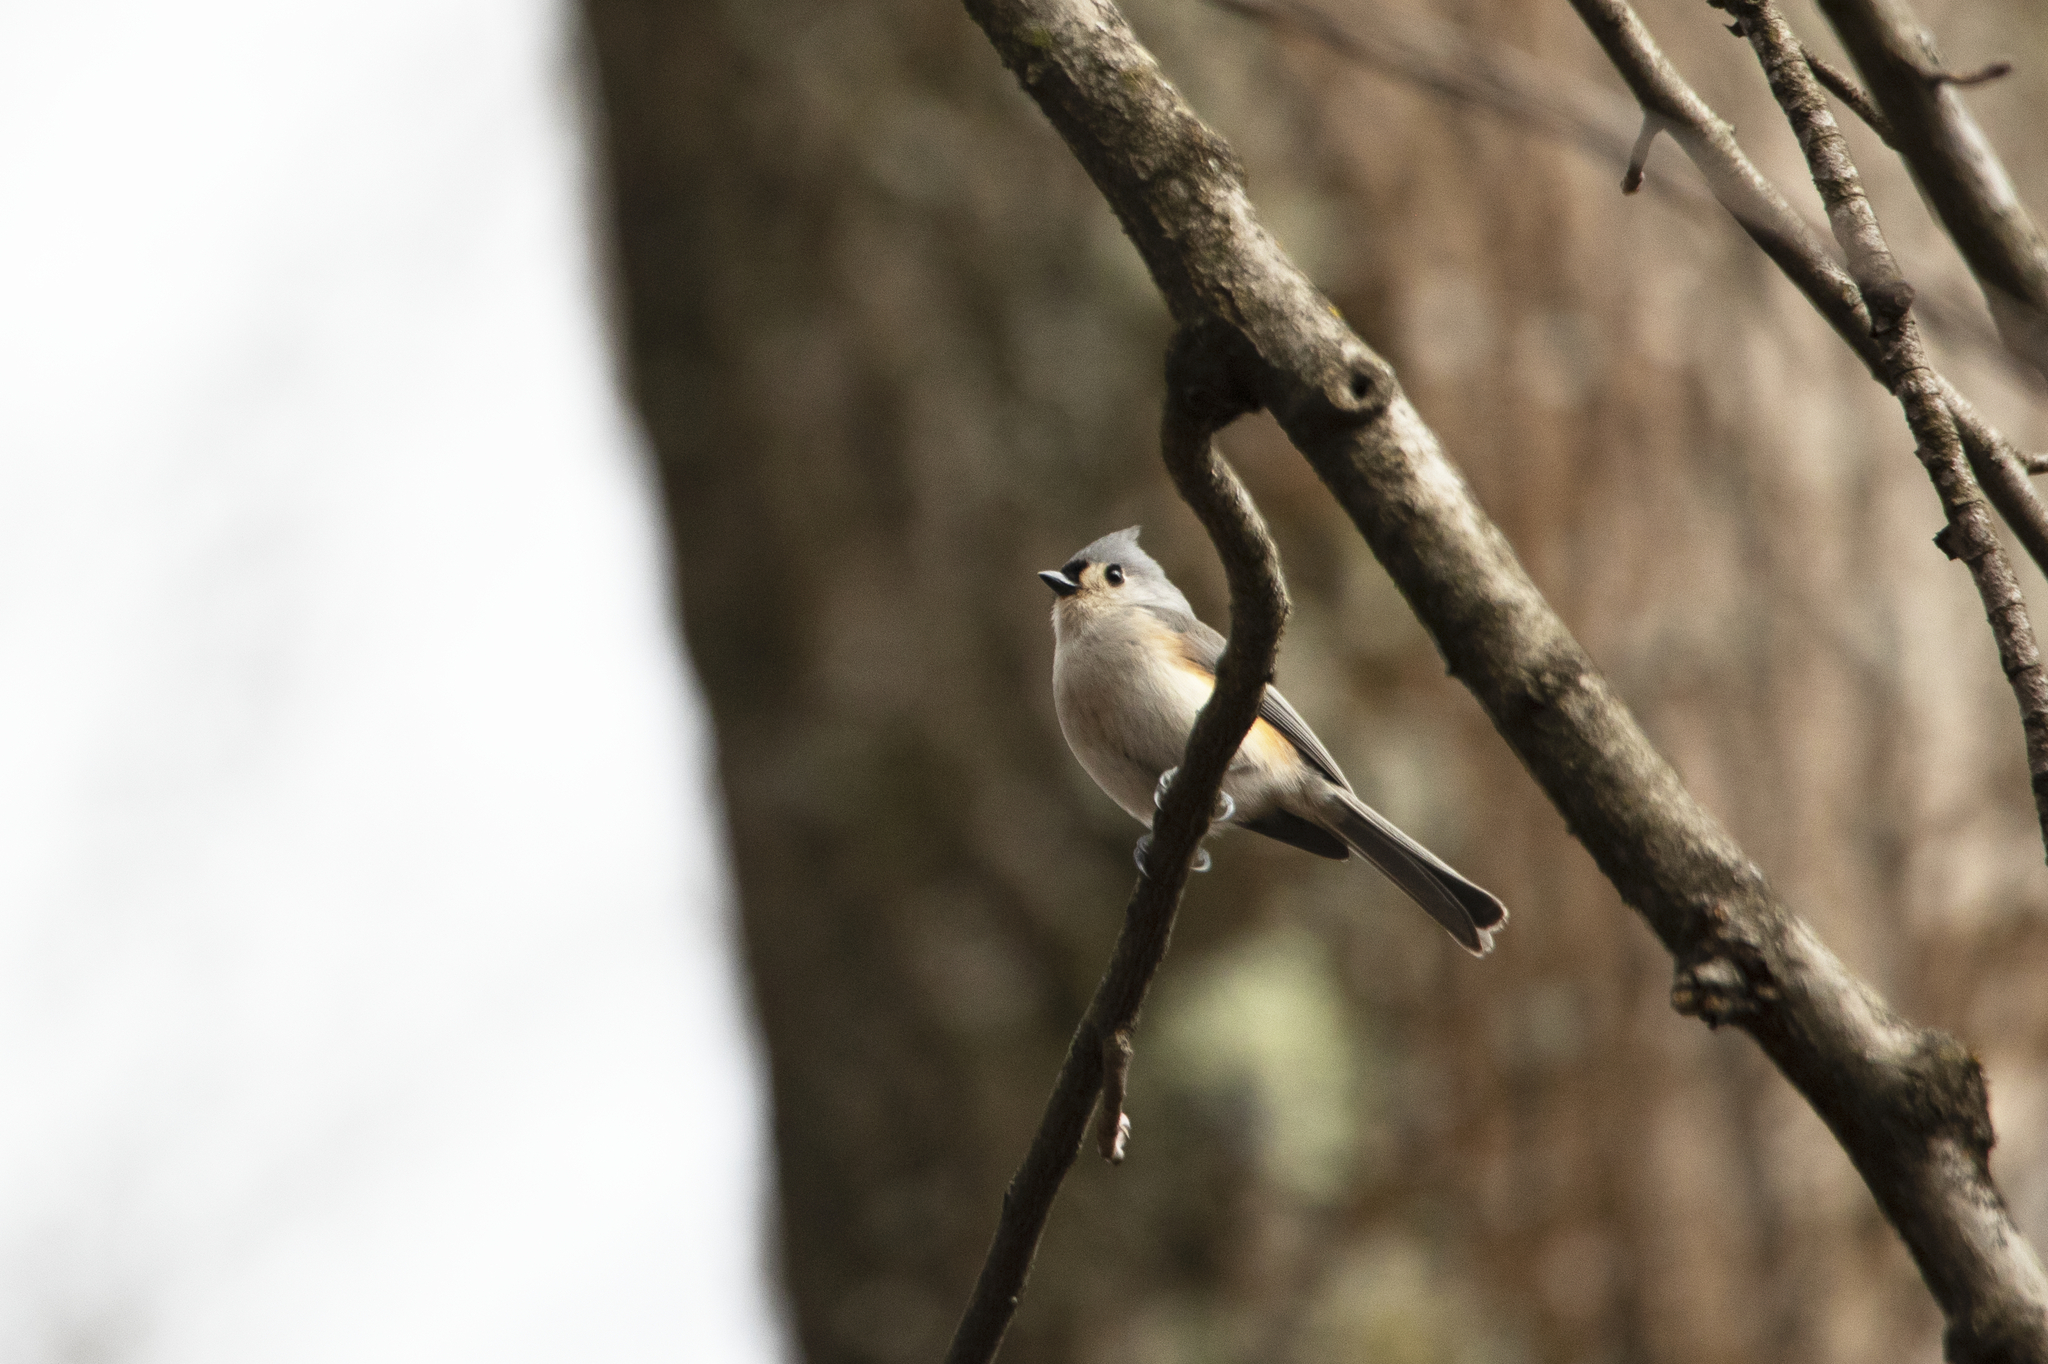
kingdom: Animalia
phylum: Chordata
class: Aves
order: Passeriformes
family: Paridae
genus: Baeolophus
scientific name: Baeolophus bicolor
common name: Tufted titmouse
